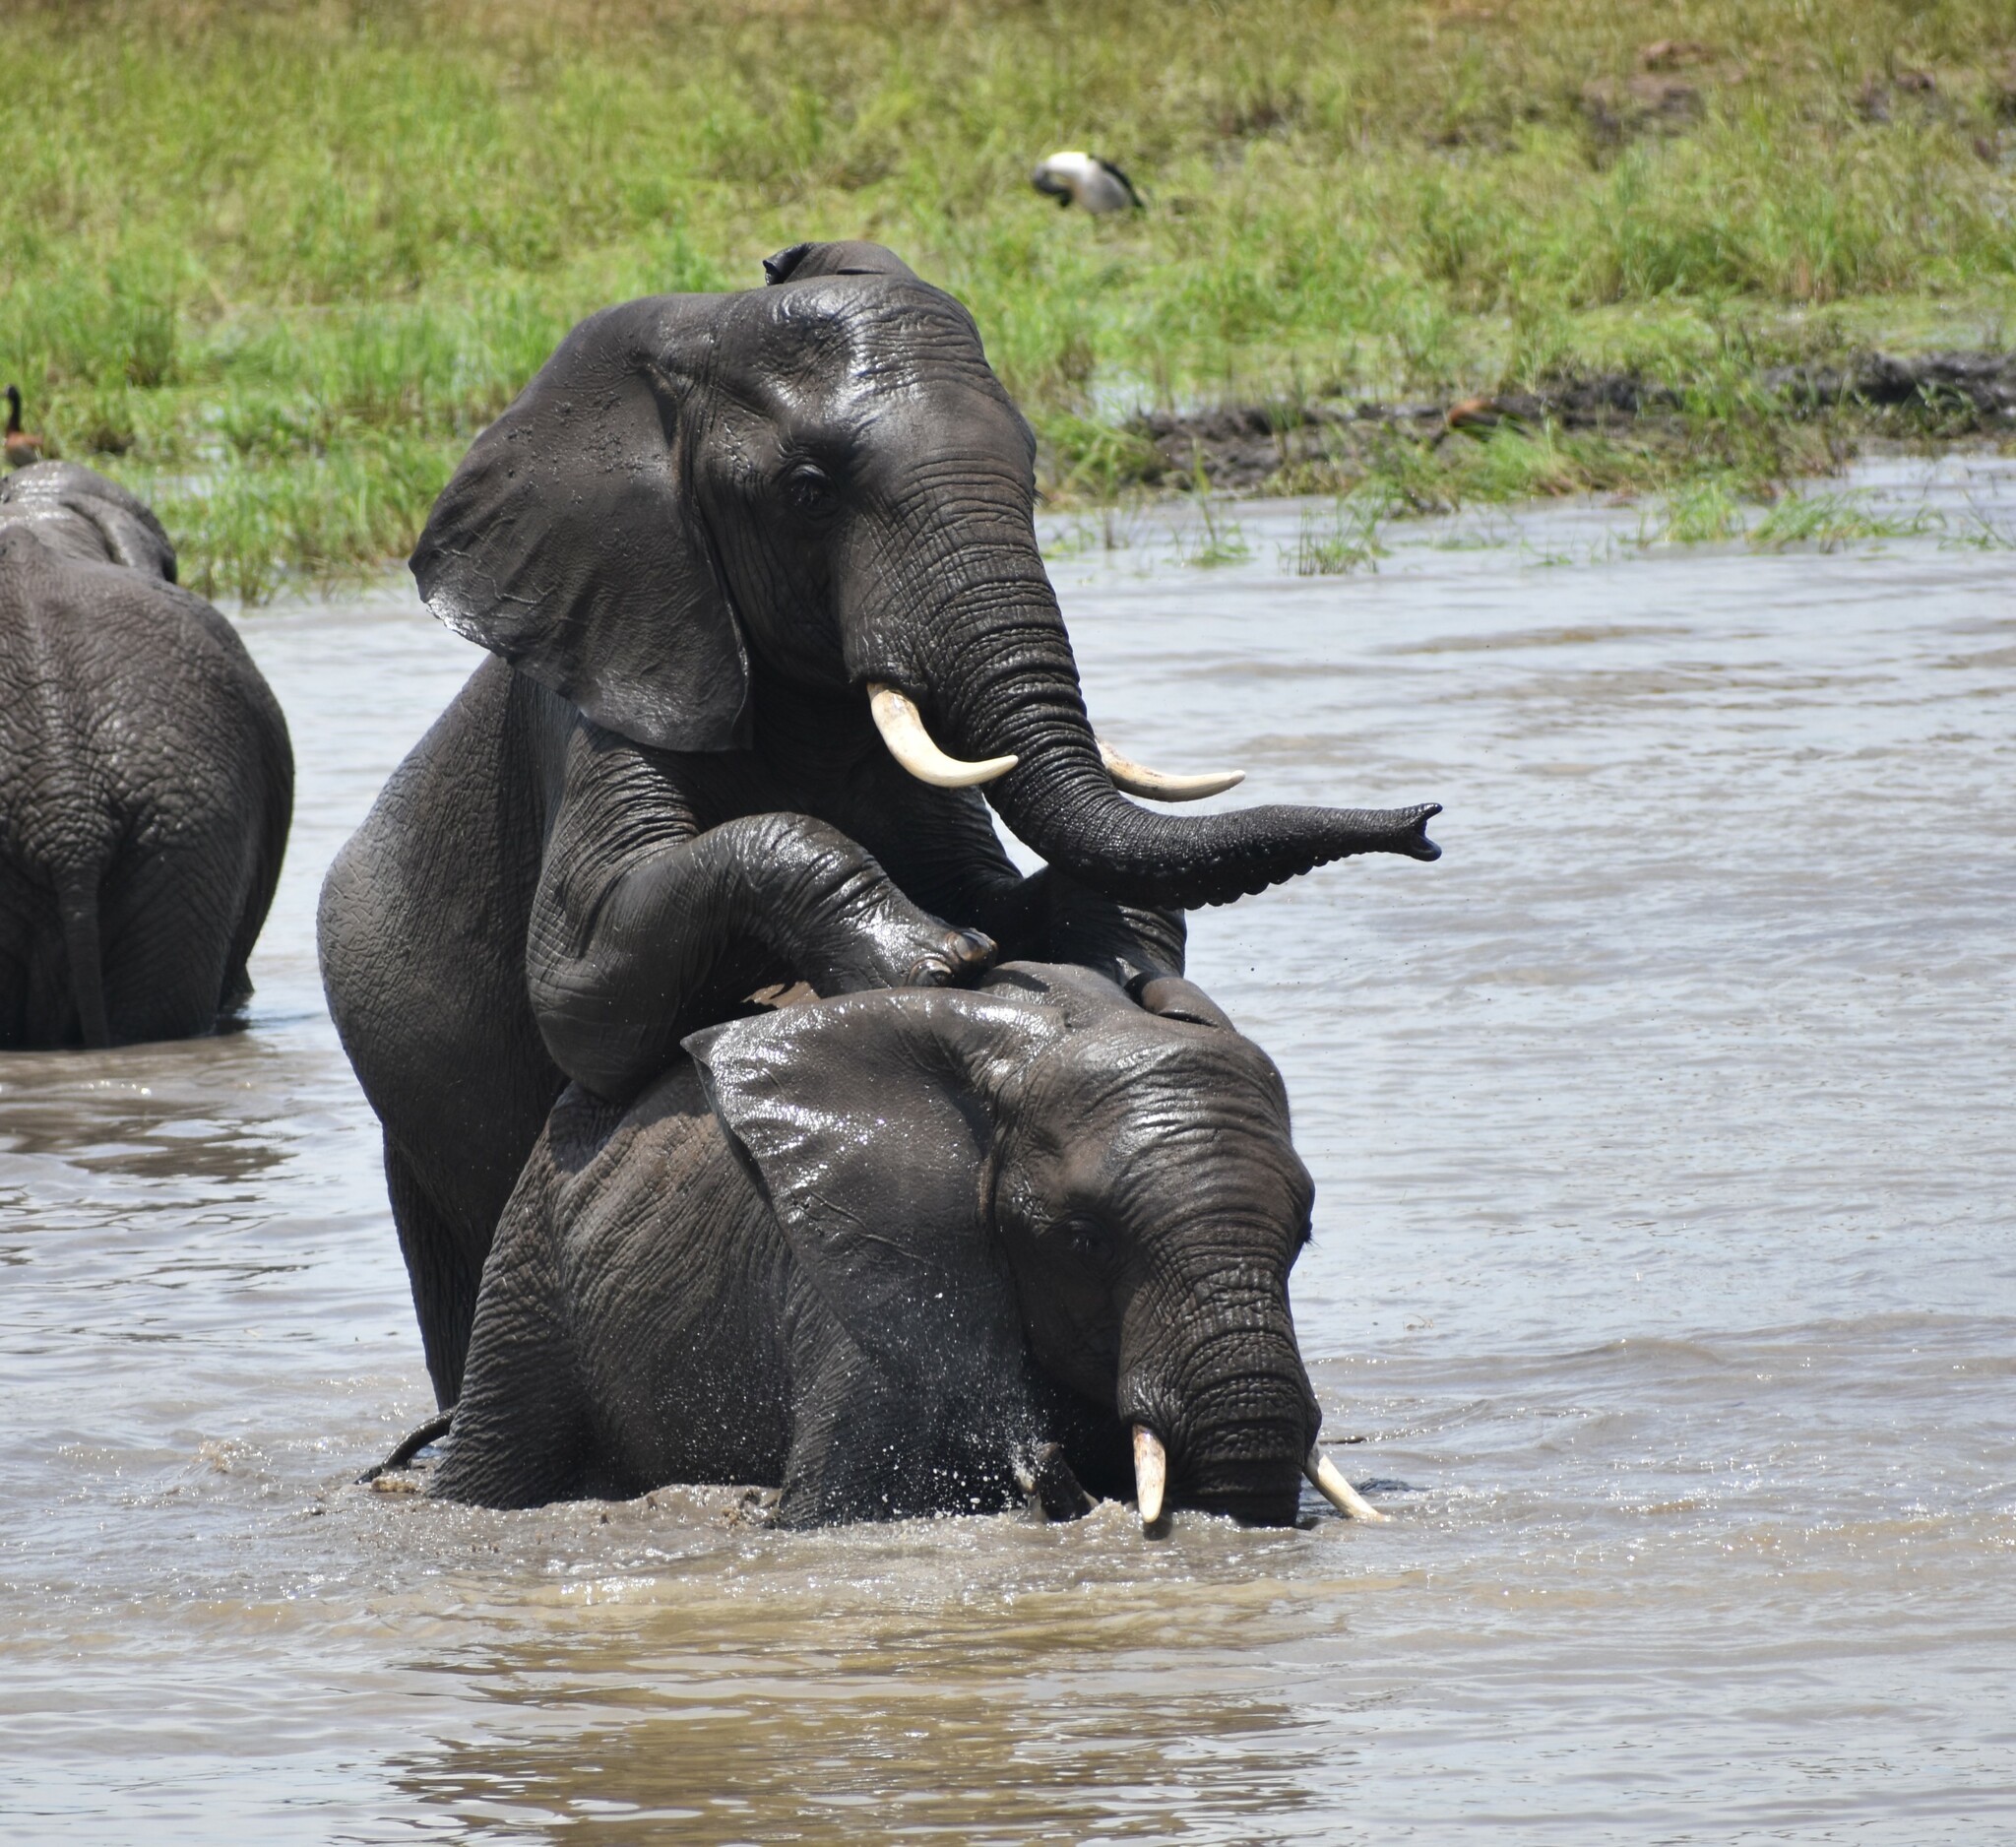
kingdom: Animalia
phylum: Chordata
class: Mammalia
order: Proboscidea
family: Elephantidae
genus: Loxodonta
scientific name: Loxodonta africana
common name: African elephant
